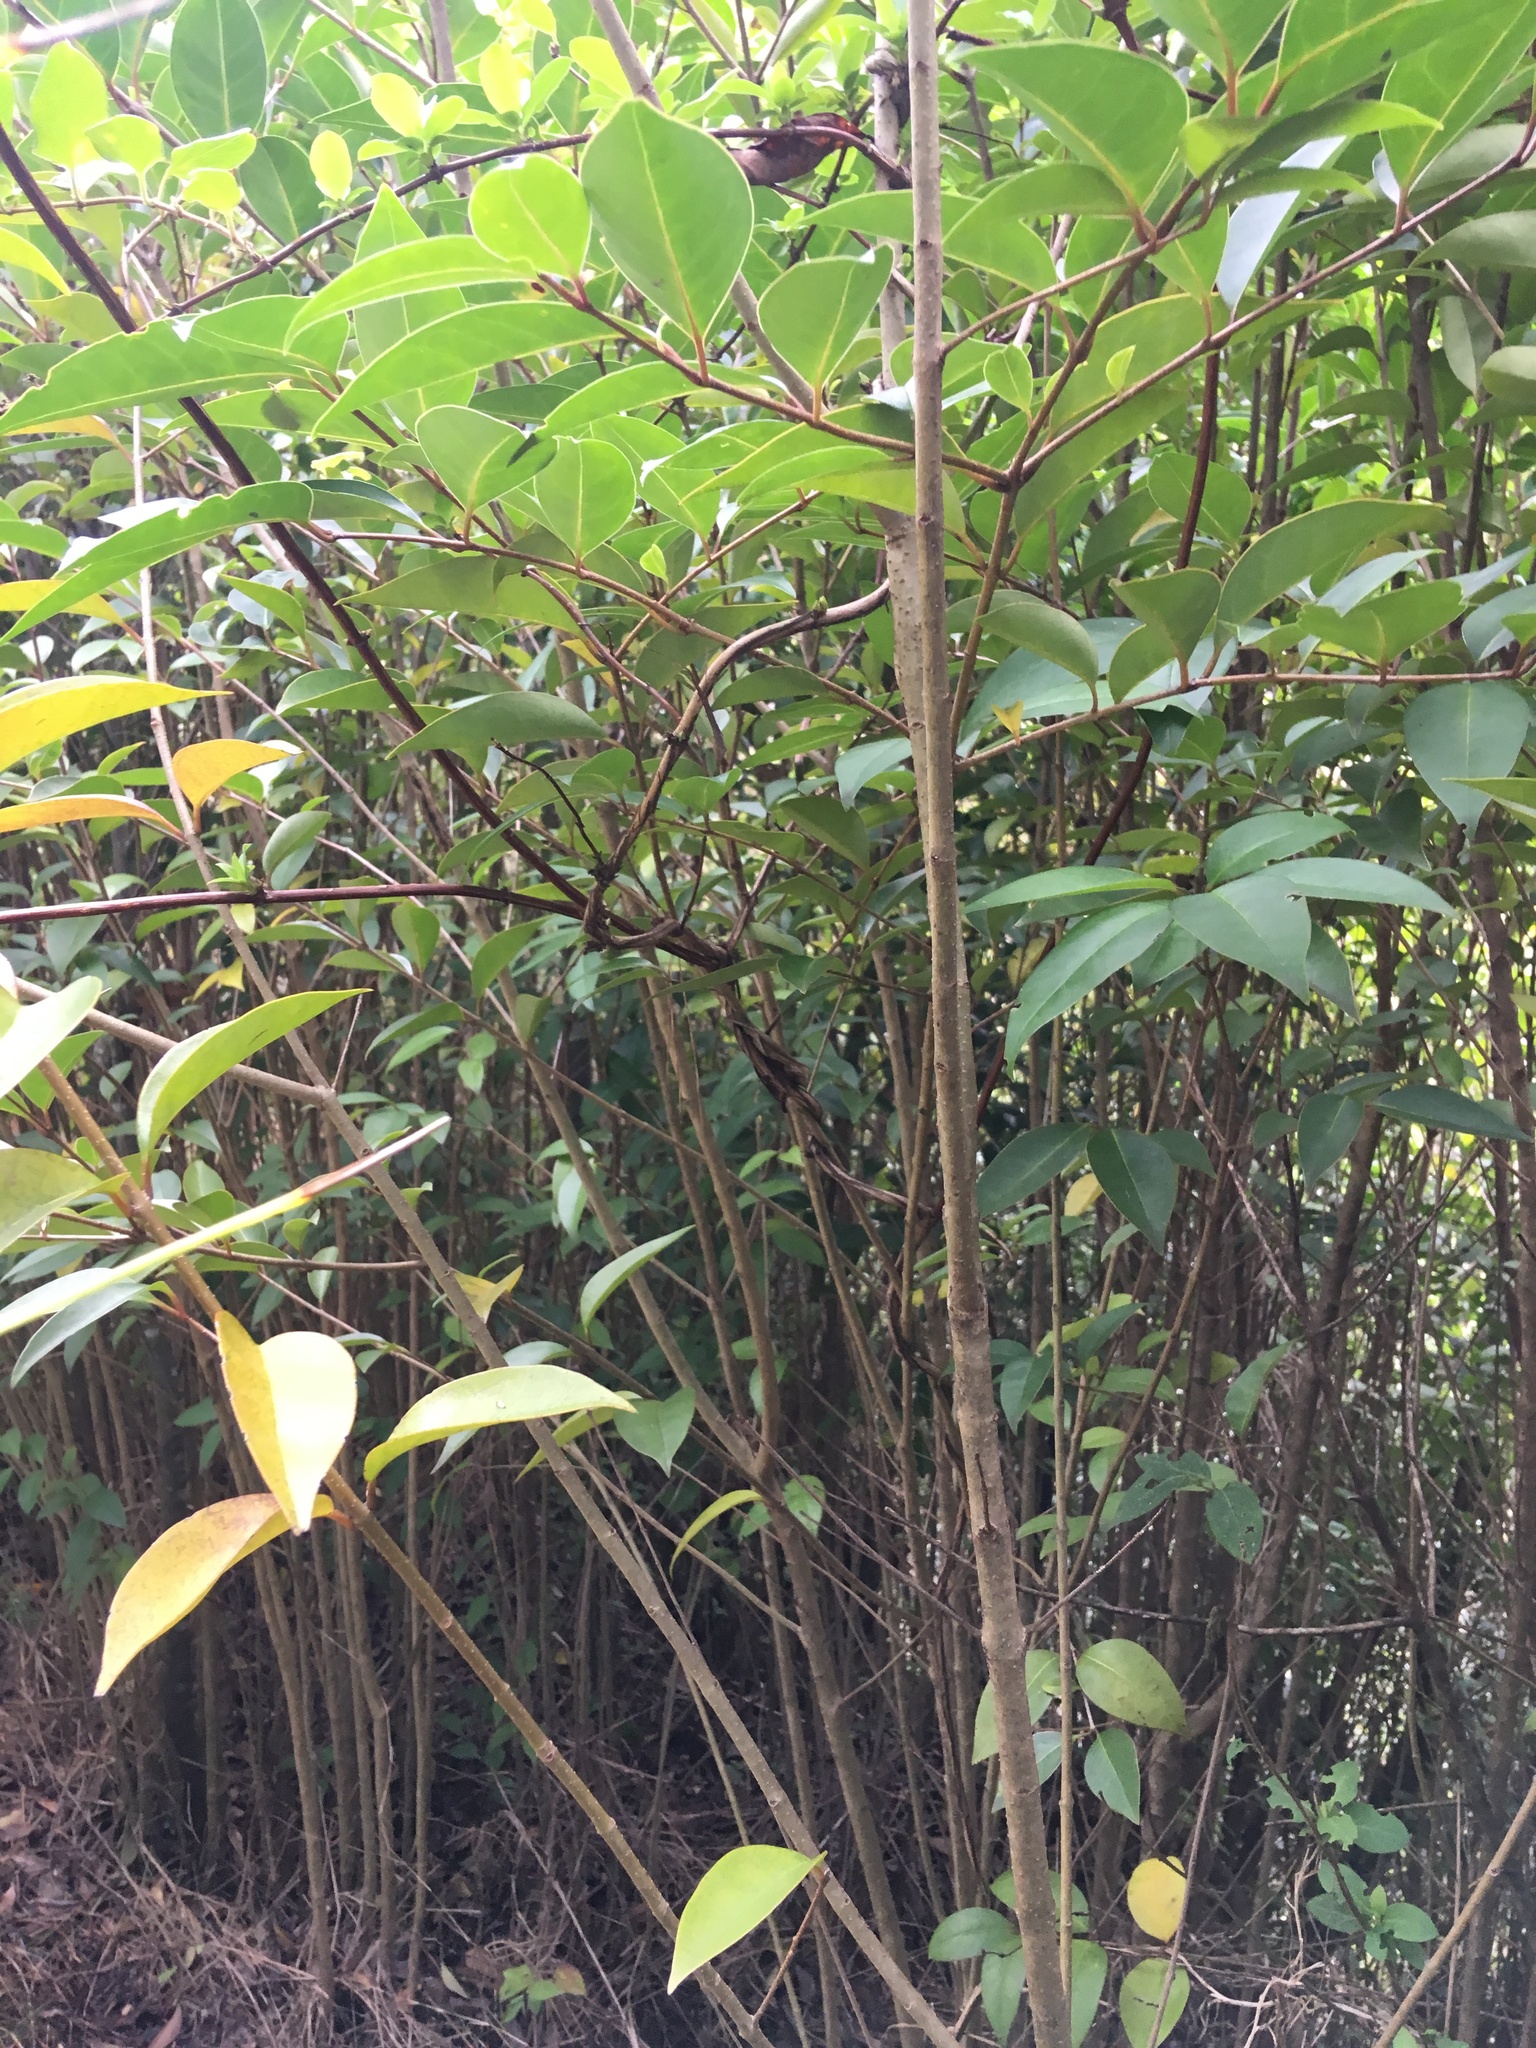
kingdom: Plantae
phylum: Tracheophyta
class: Magnoliopsida
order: Lamiales
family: Oleaceae
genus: Ligustrum
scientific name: Ligustrum lucidum
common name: Glossy privet
